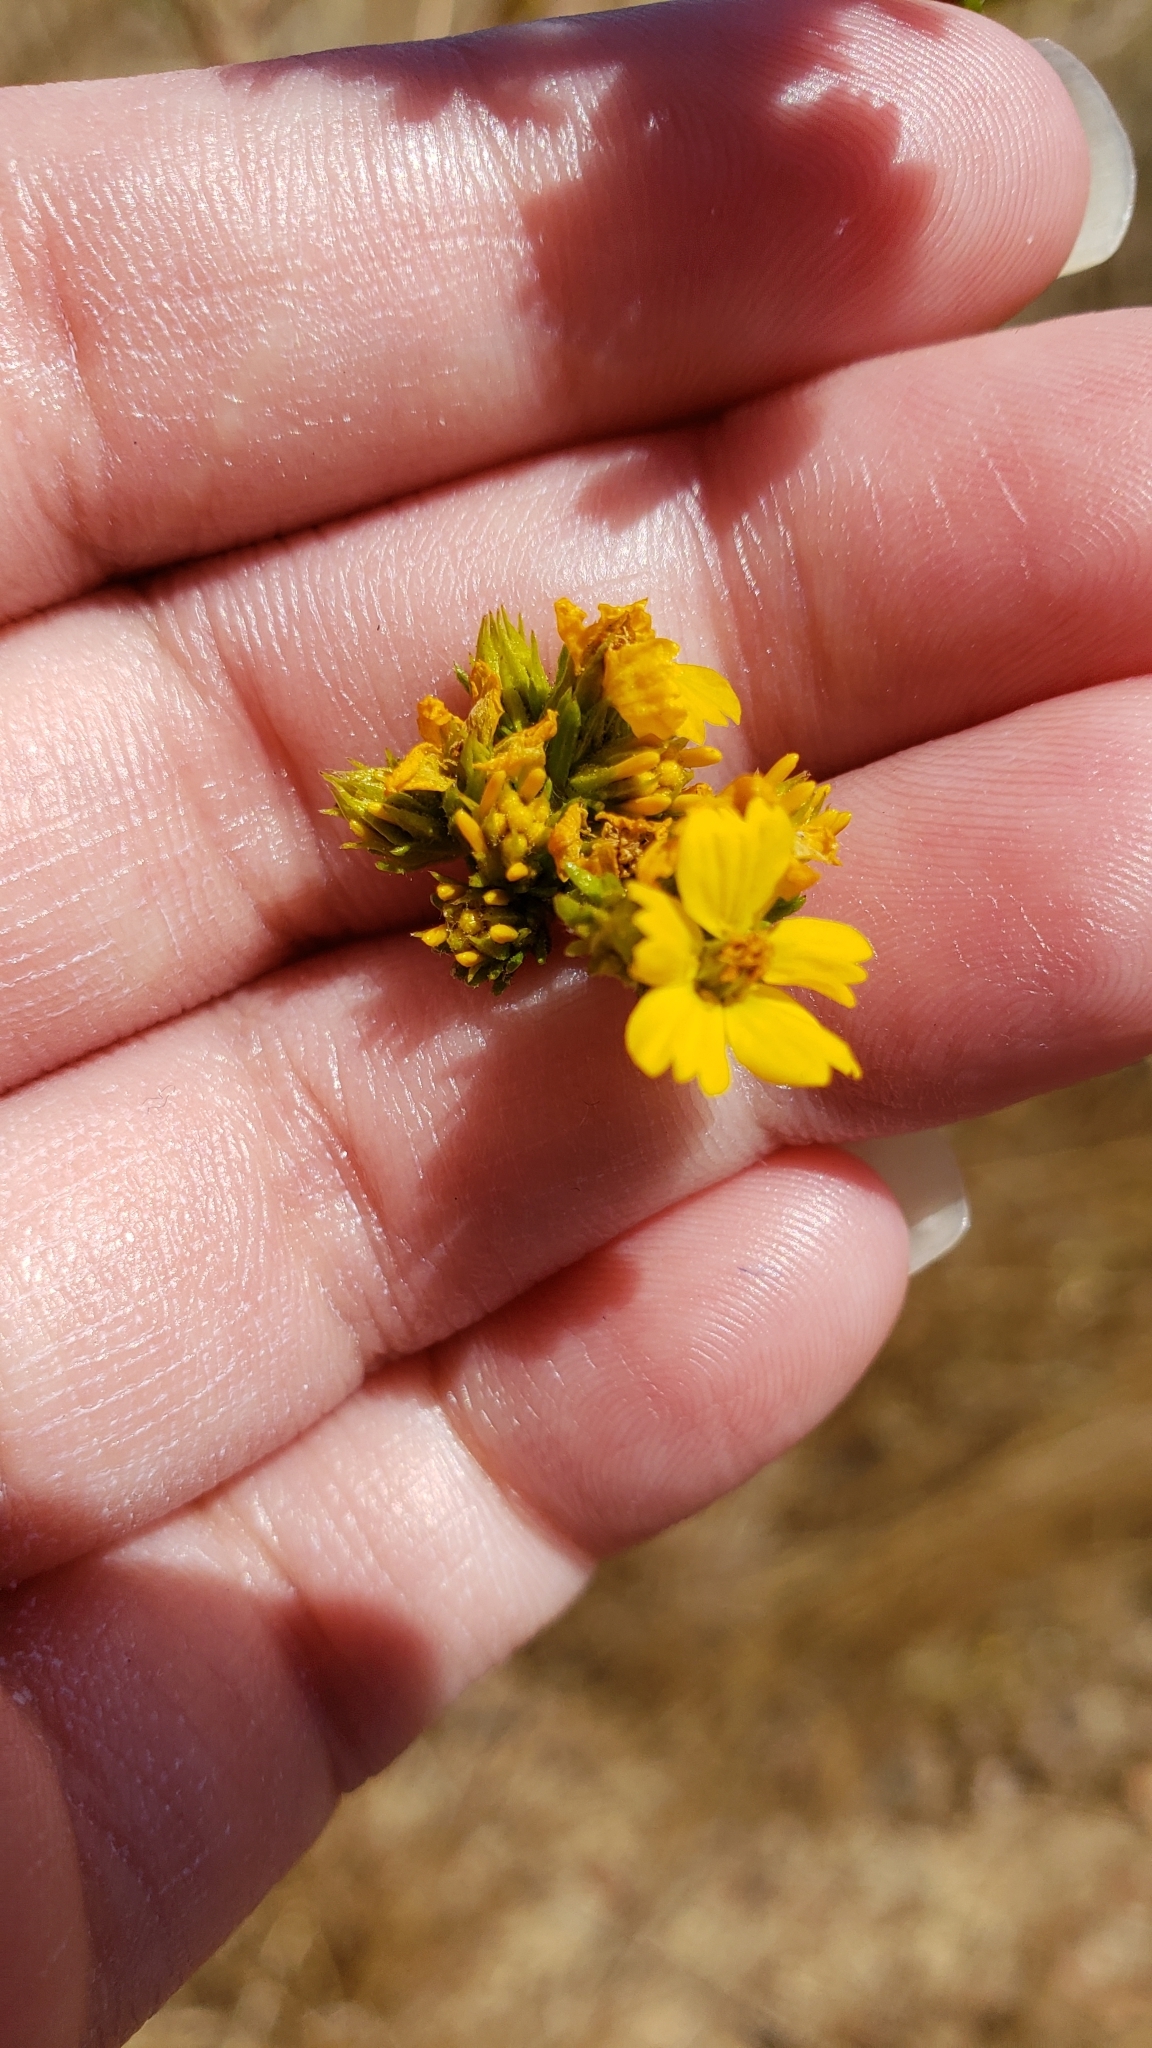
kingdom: Plantae
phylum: Tracheophyta
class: Magnoliopsida
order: Asterales
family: Asteraceae
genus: Deinandra
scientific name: Deinandra fasciculata
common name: Clustered tarweed
